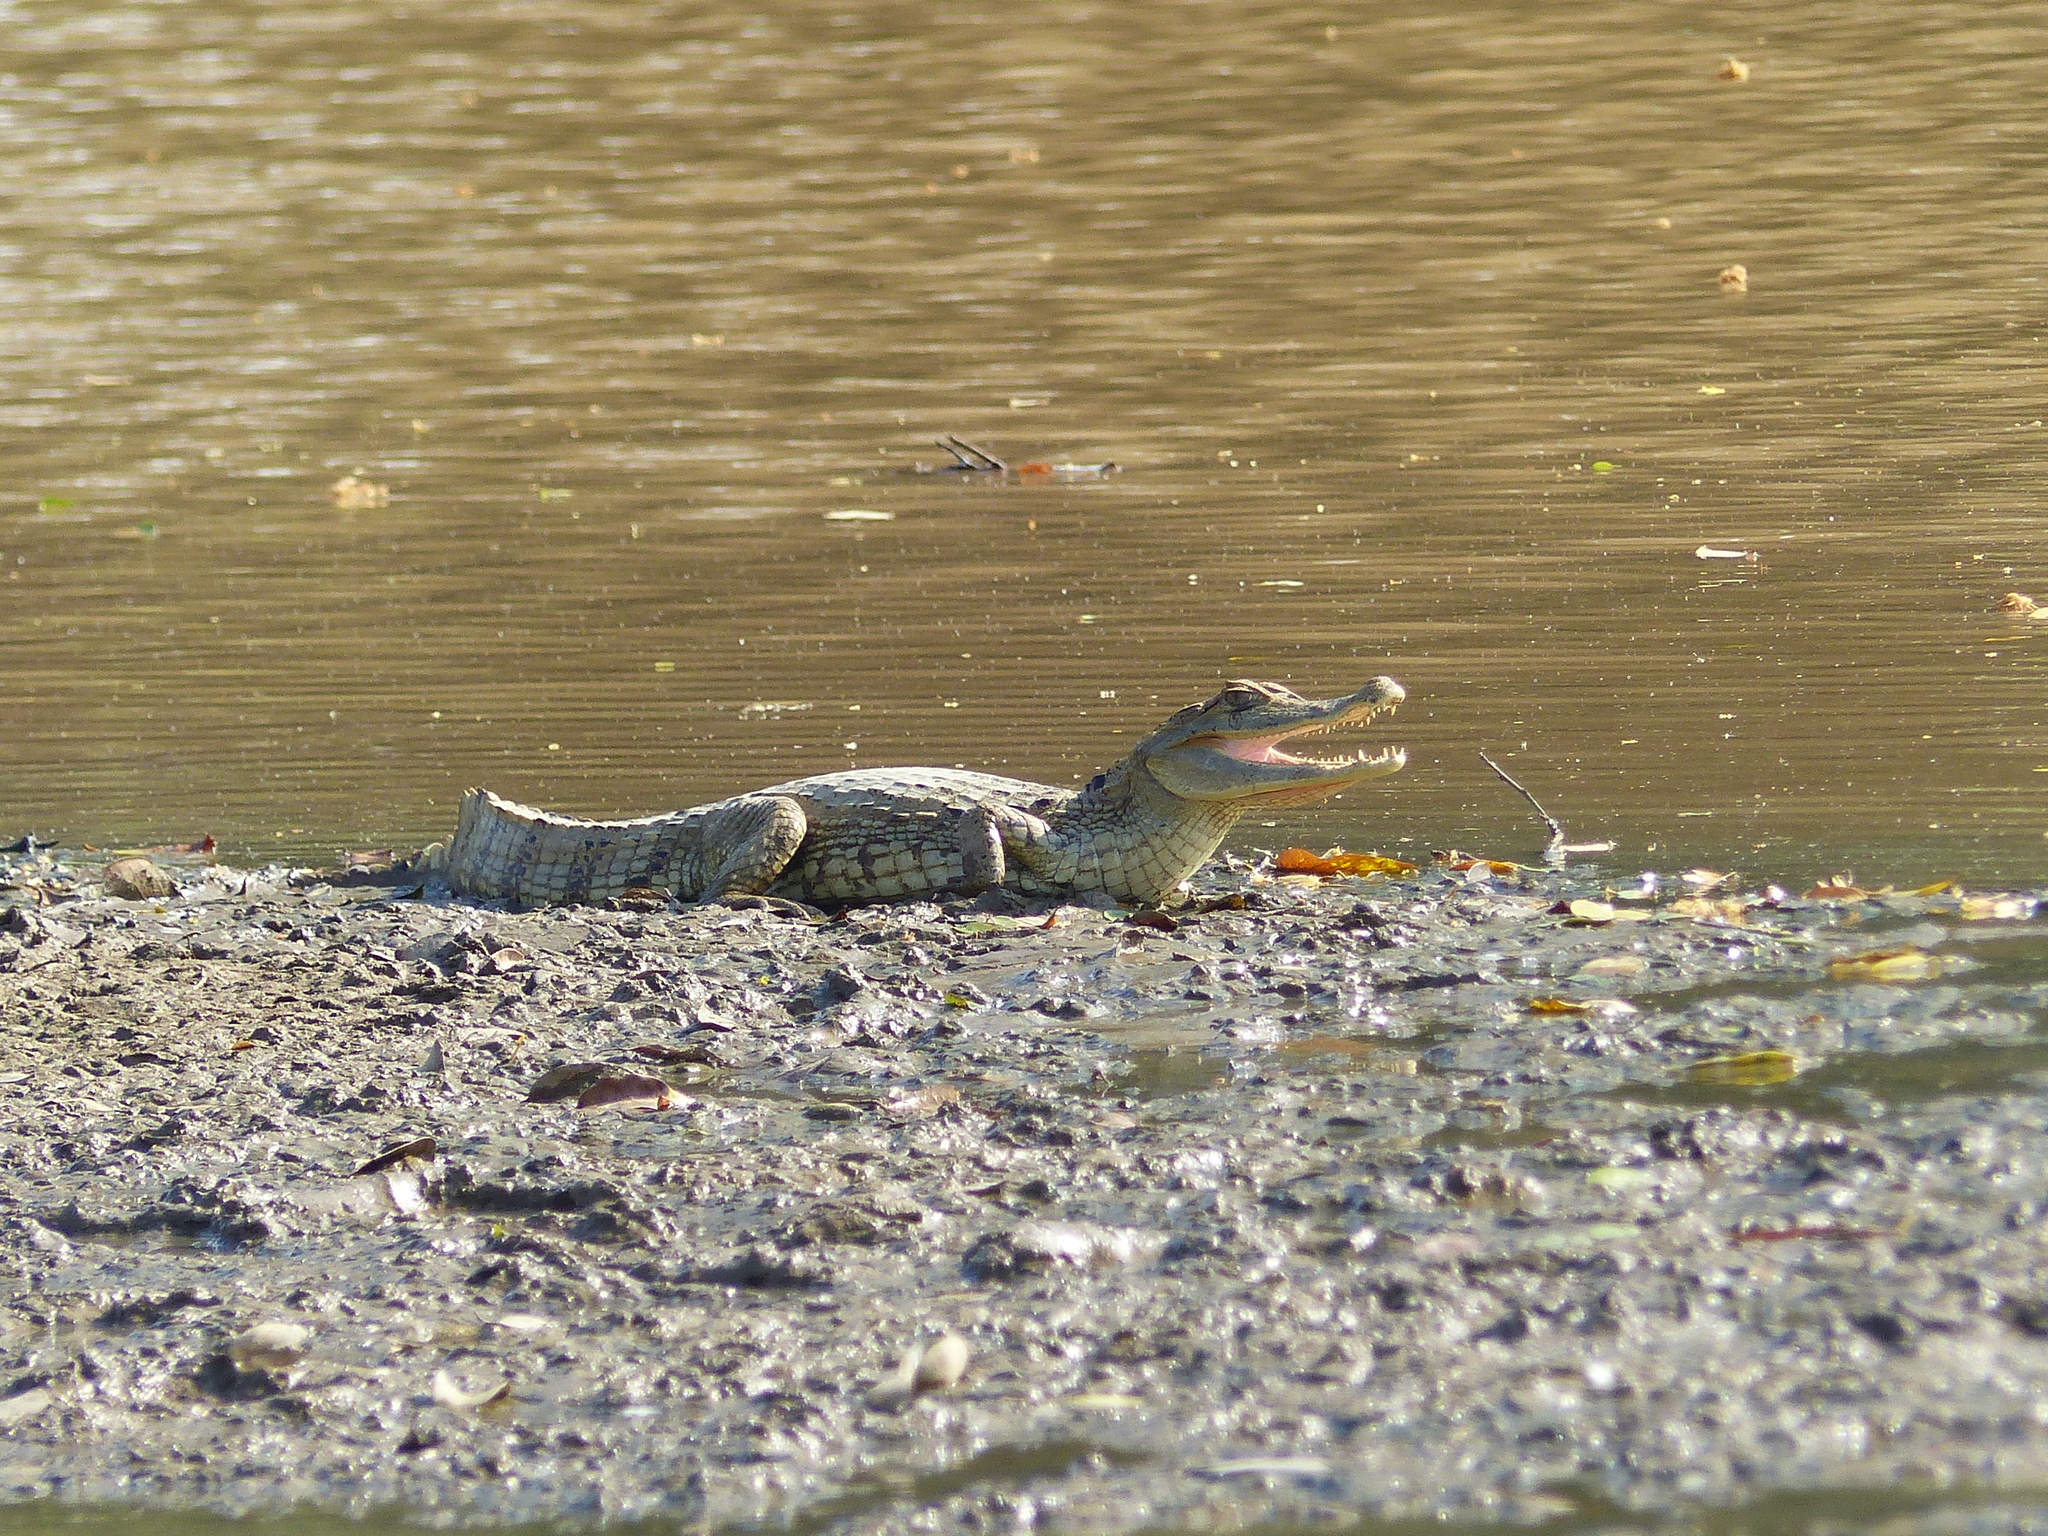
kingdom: Animalia
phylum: Chordata
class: Crocodylia
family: Alligatoridae
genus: Caiman
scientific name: Caiman crocodilus
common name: Common caiman
